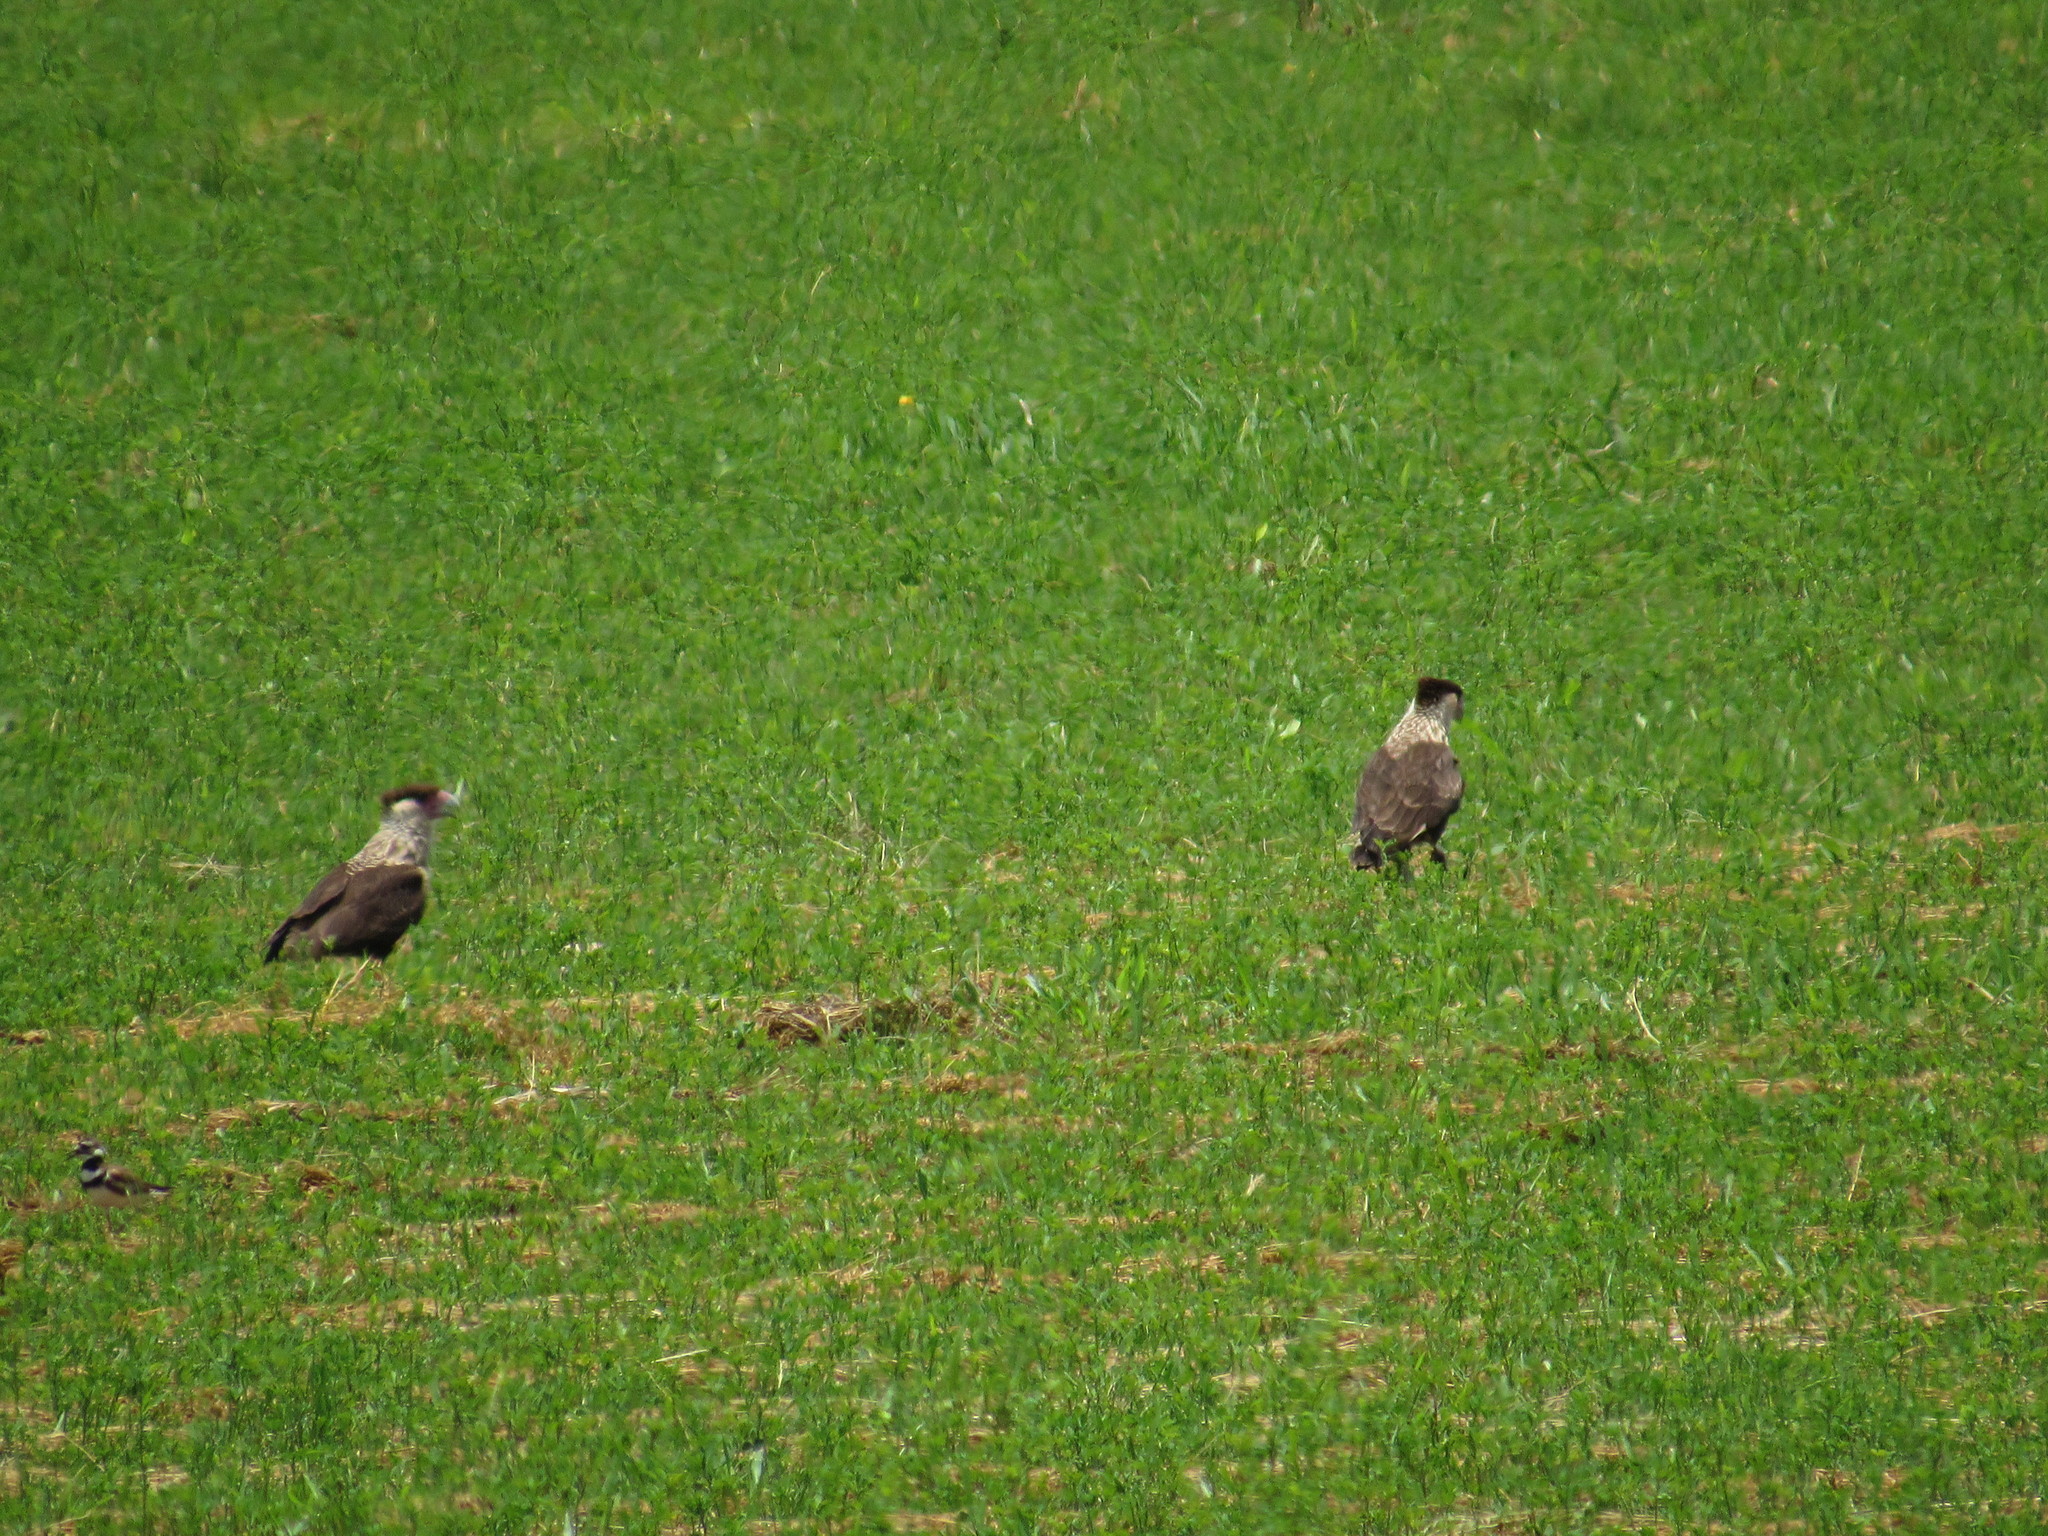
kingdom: Animalia
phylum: Chordata
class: Aves
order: Falconiformes
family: Falconidae
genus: Caracara
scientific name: Caracara plancus
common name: Southern caracara
